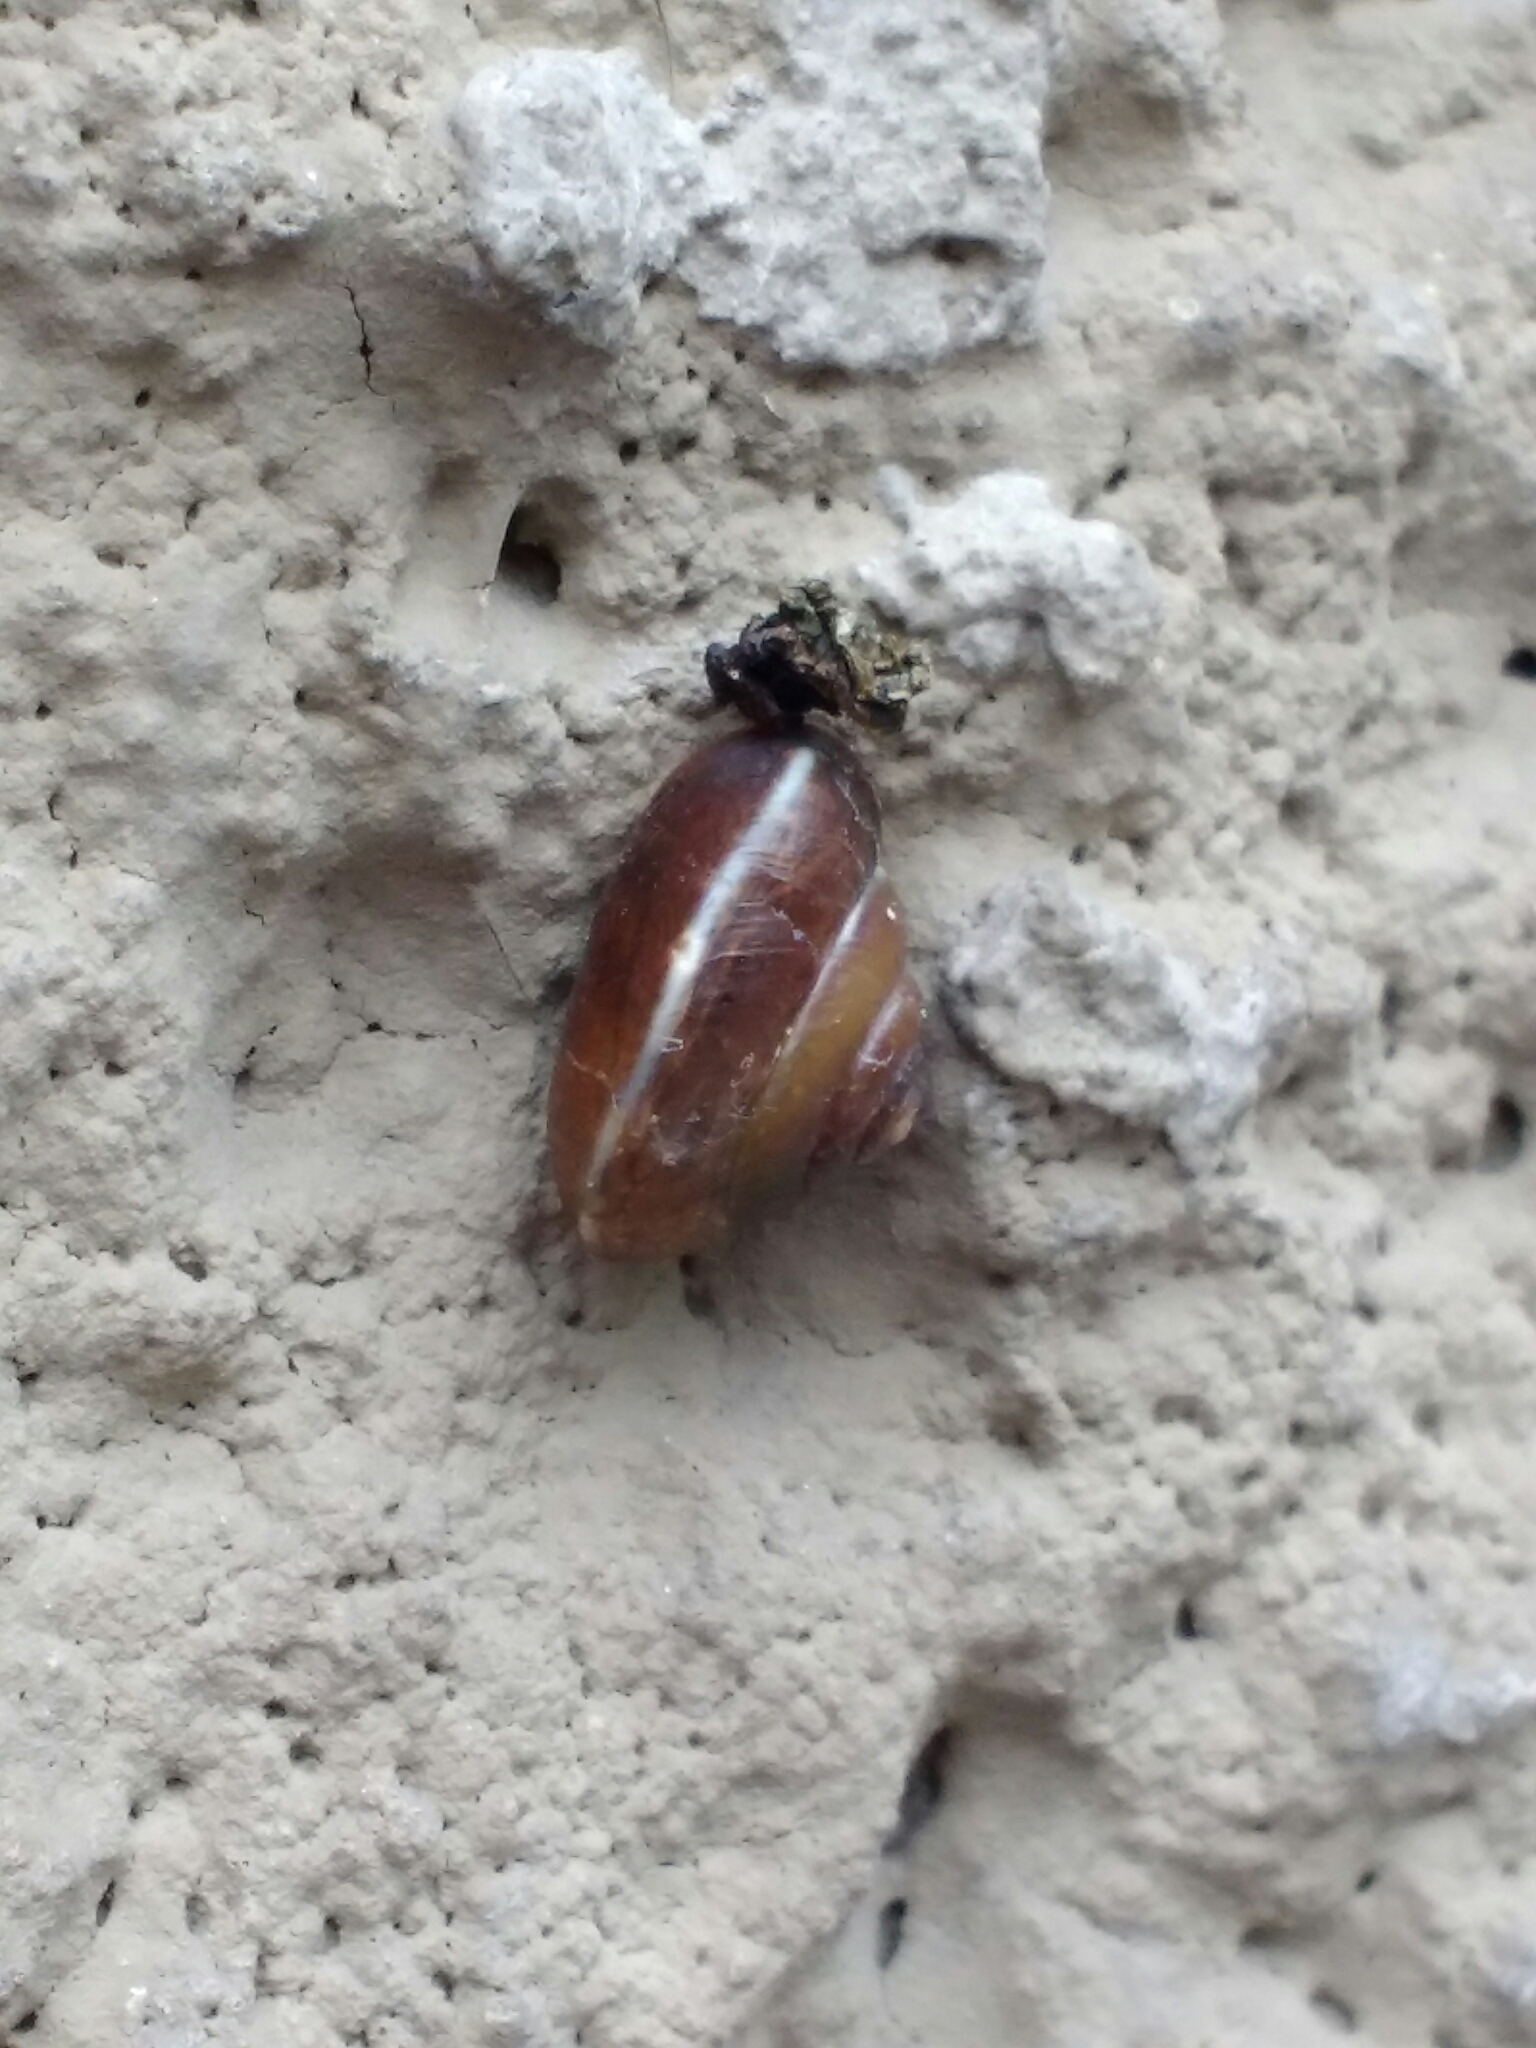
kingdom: Animalia
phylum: Mollusca
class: Gastropoda
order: Stylommatophora
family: Hygromiidae
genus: Hygromia
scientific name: Hygromia cinctella
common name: Girdled snail
